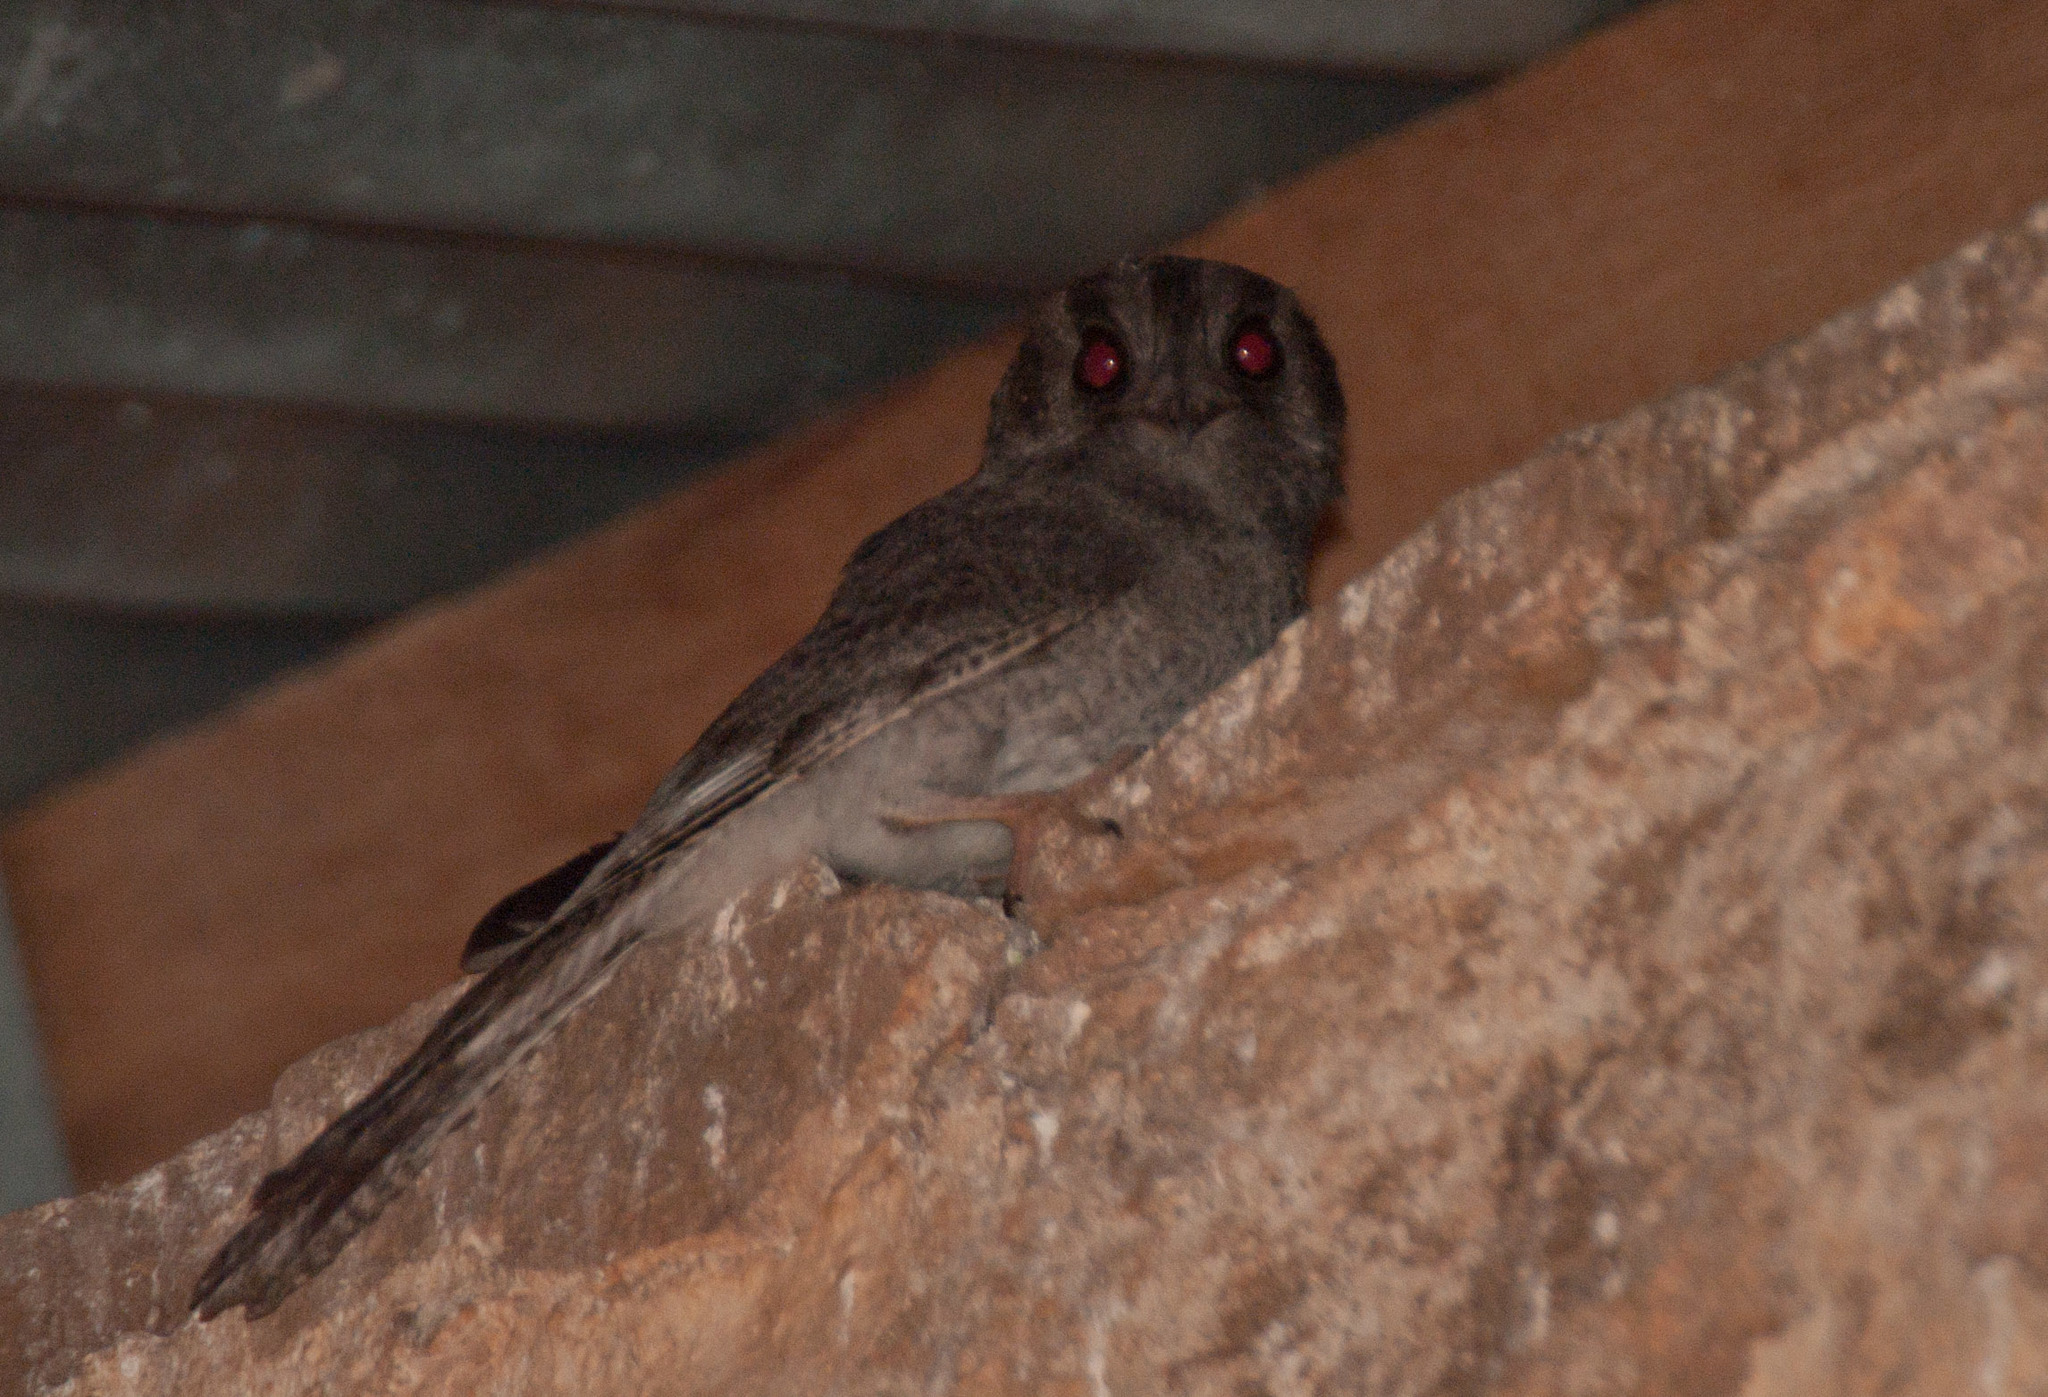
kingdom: Animalia
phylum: Chordata
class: Aves
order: Apodiformes
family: Aegothelidae
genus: Aegotheles
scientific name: Aegotheles cristatus
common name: Australian owlet-nightjar
